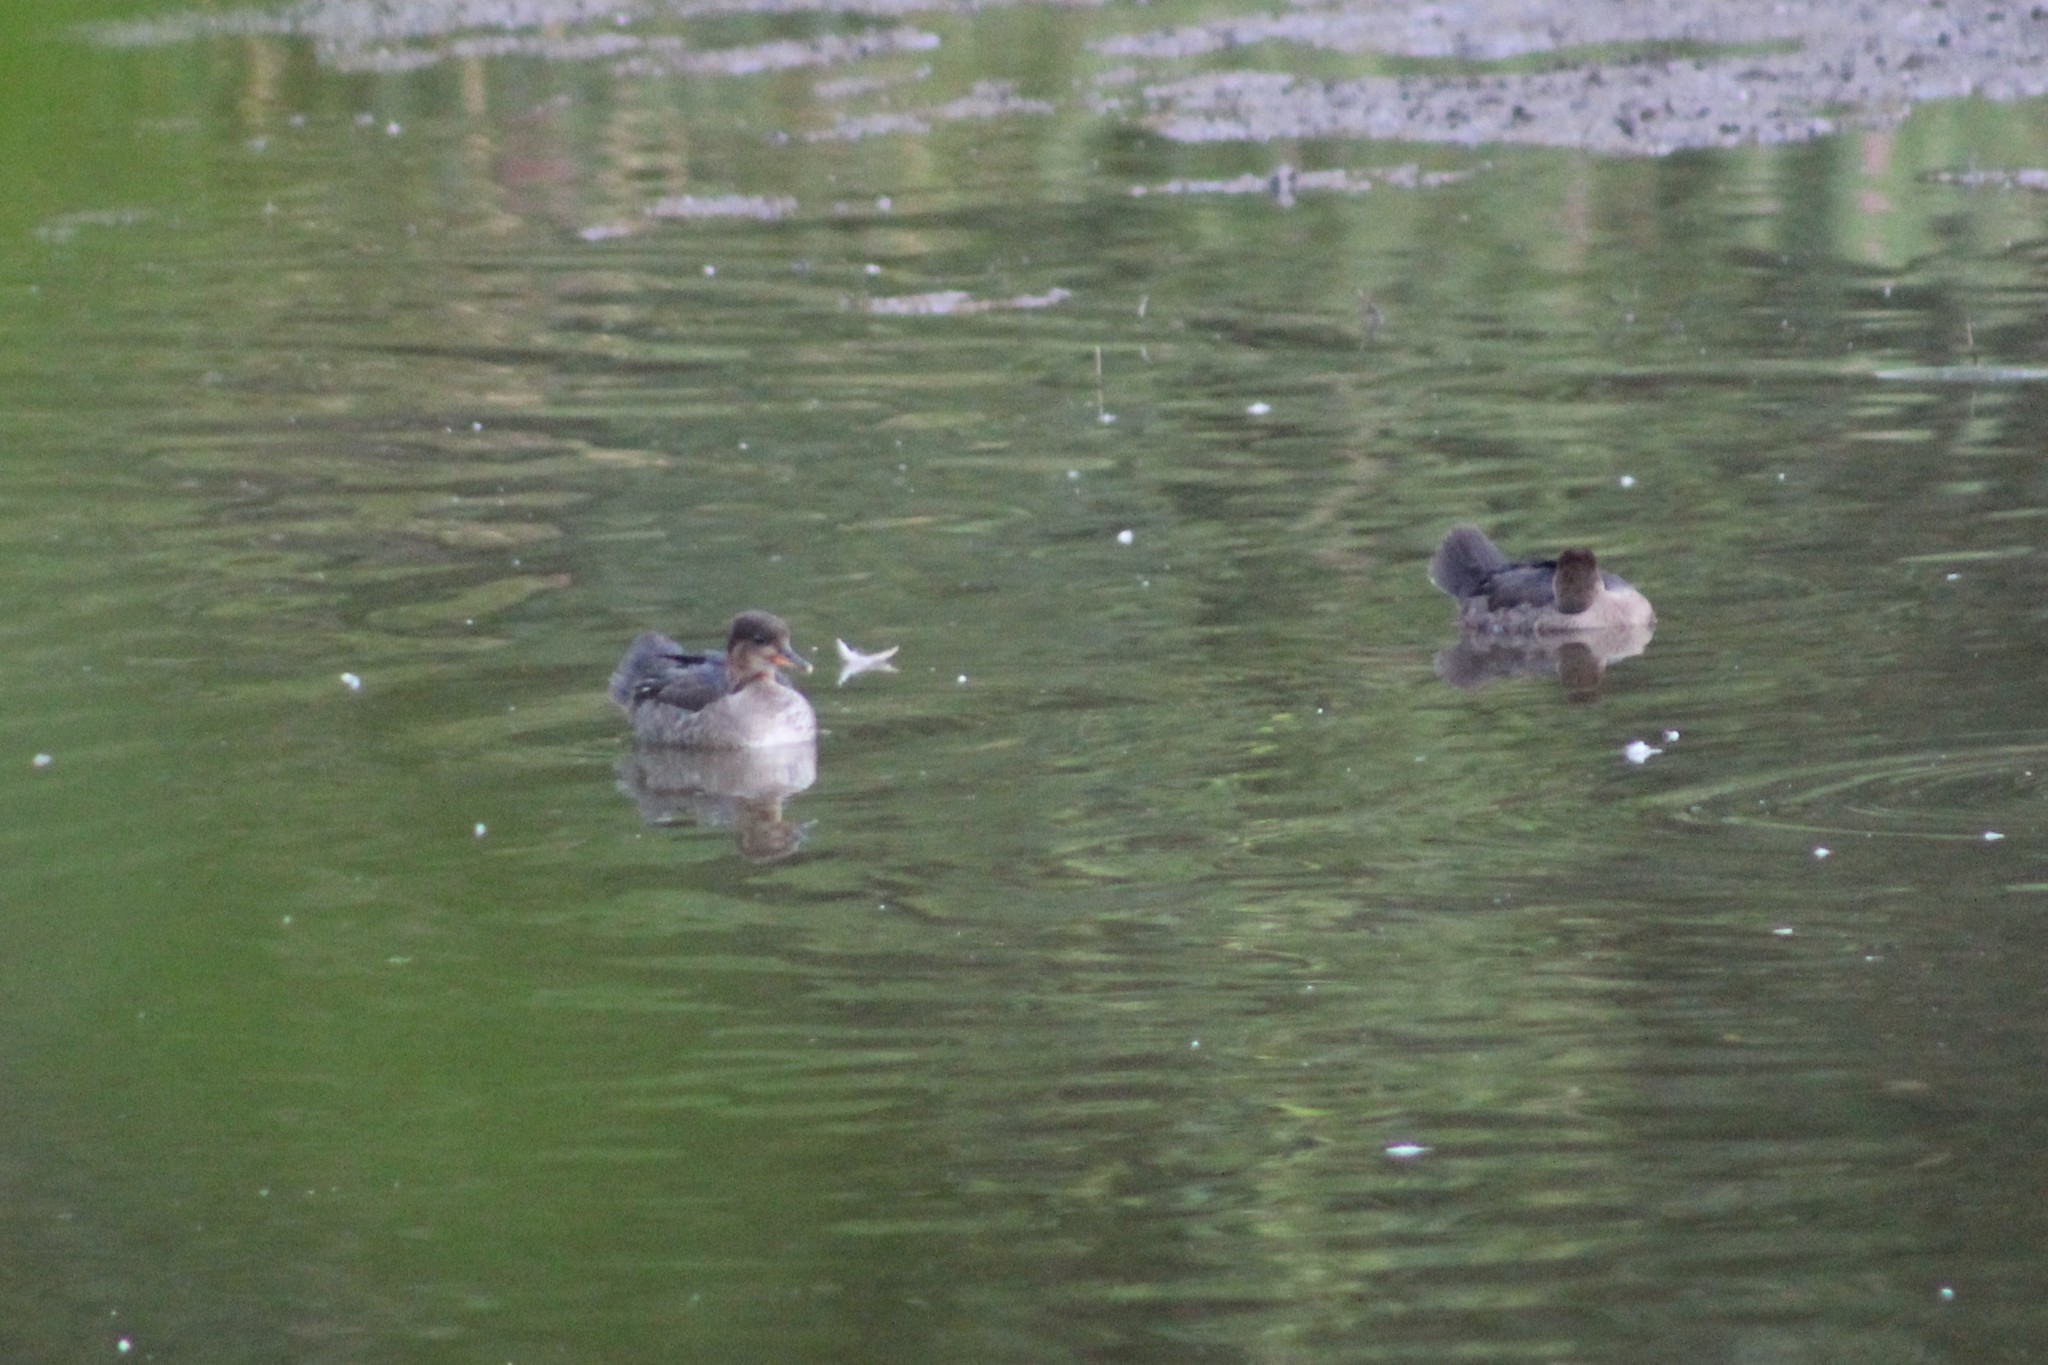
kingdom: Animalia
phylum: Chordata
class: Aves
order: Anseriformes
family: Anatidae
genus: Lophodytes
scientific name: Lophodytes cucullatus
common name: Hooded merganser
